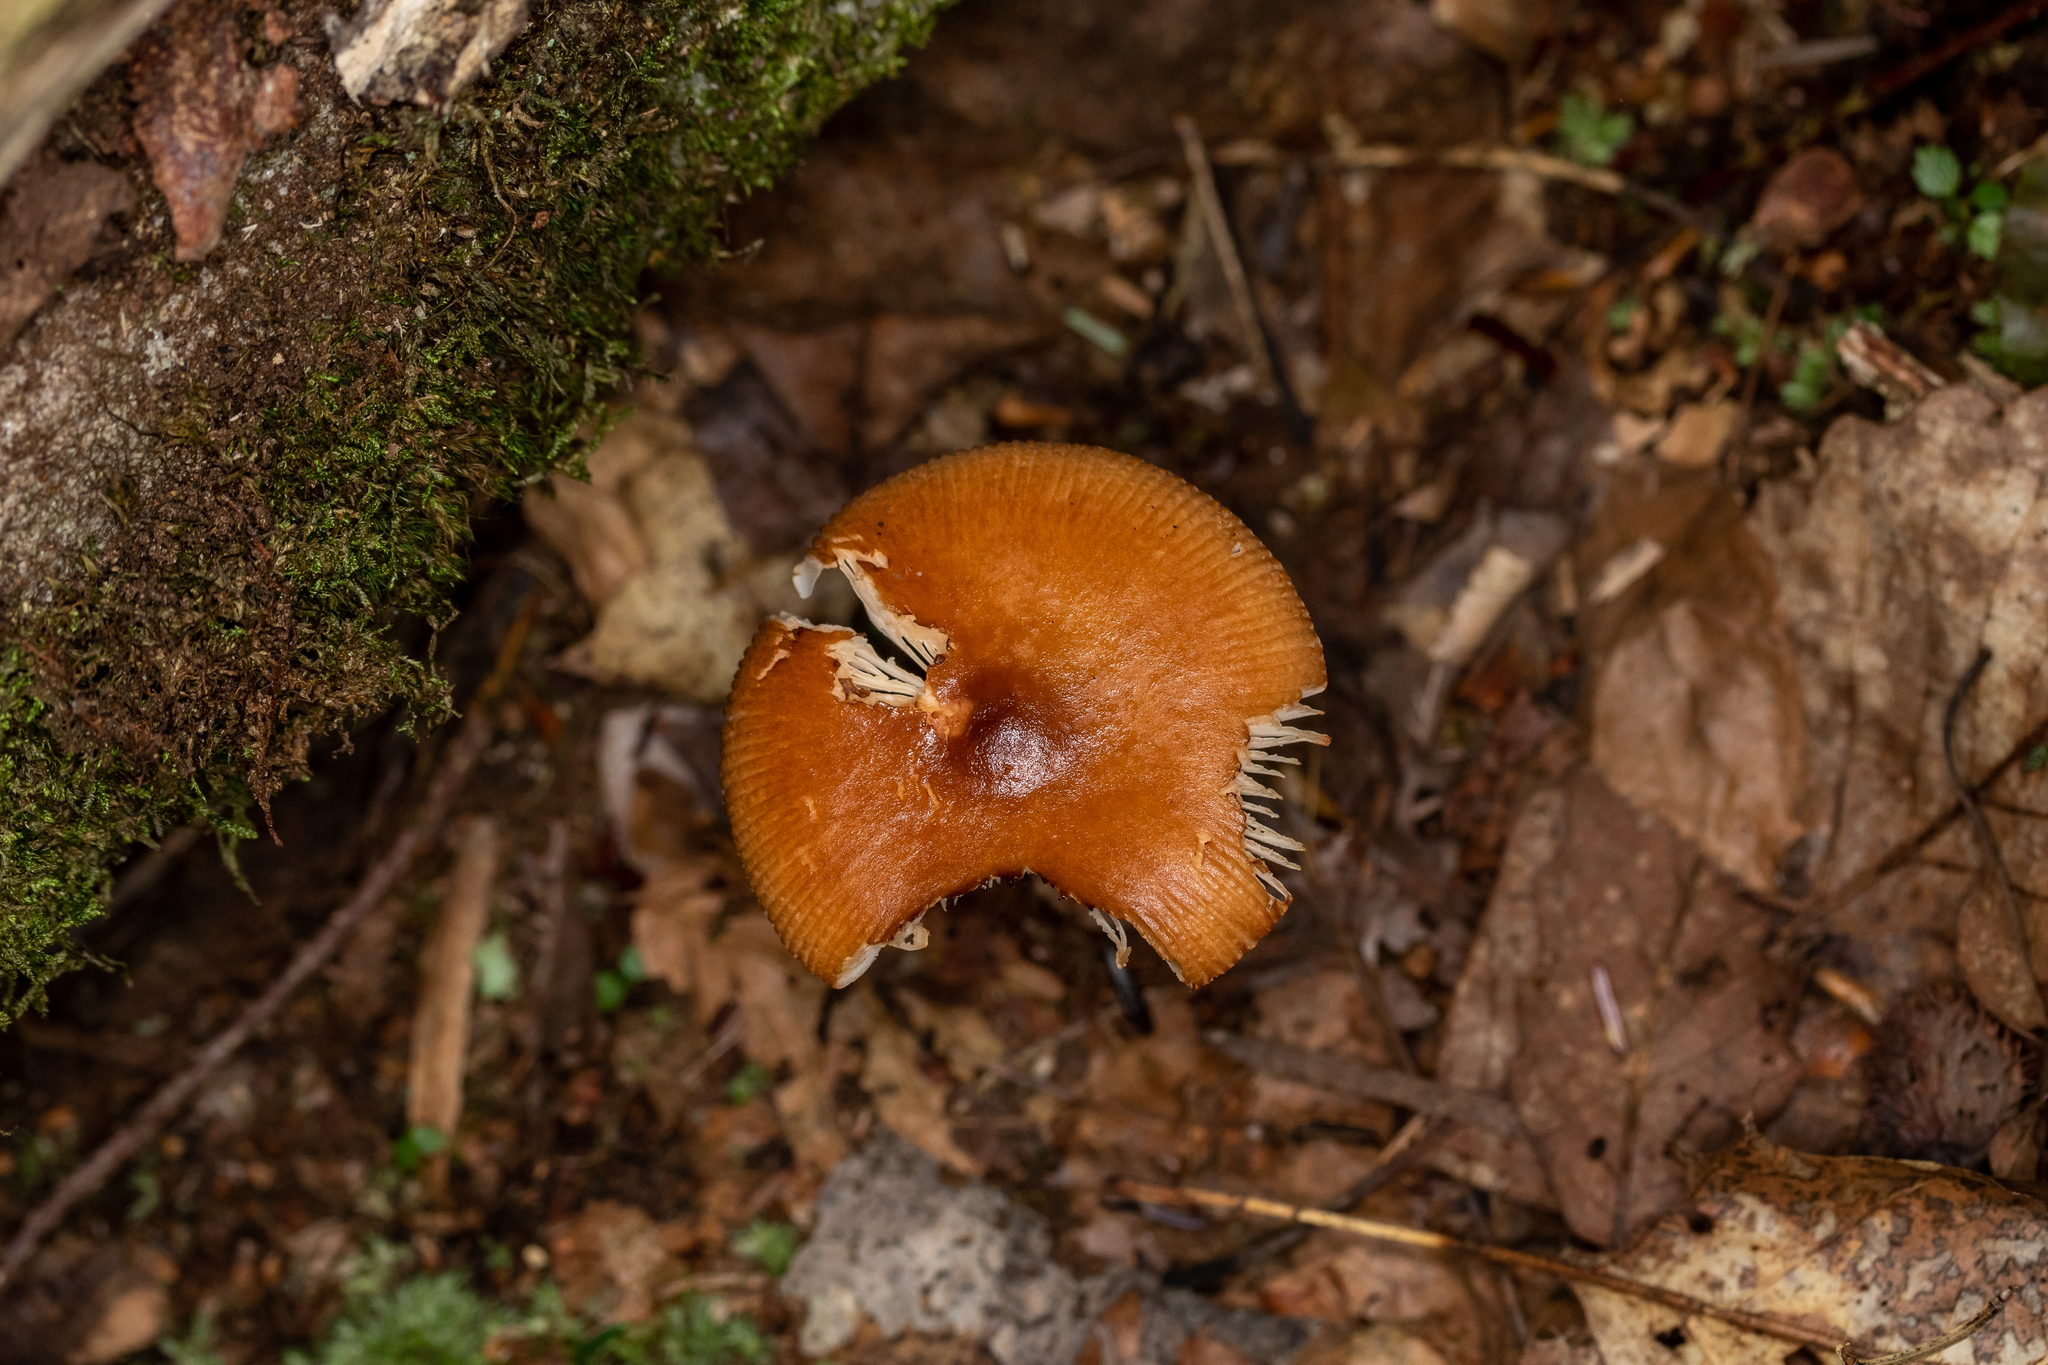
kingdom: Fungi
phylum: Basidiomycota
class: Agaricomycetes
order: Agaricales
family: Amanitaceae
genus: Amanita
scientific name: Amanita fulva
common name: Tawny grisette
